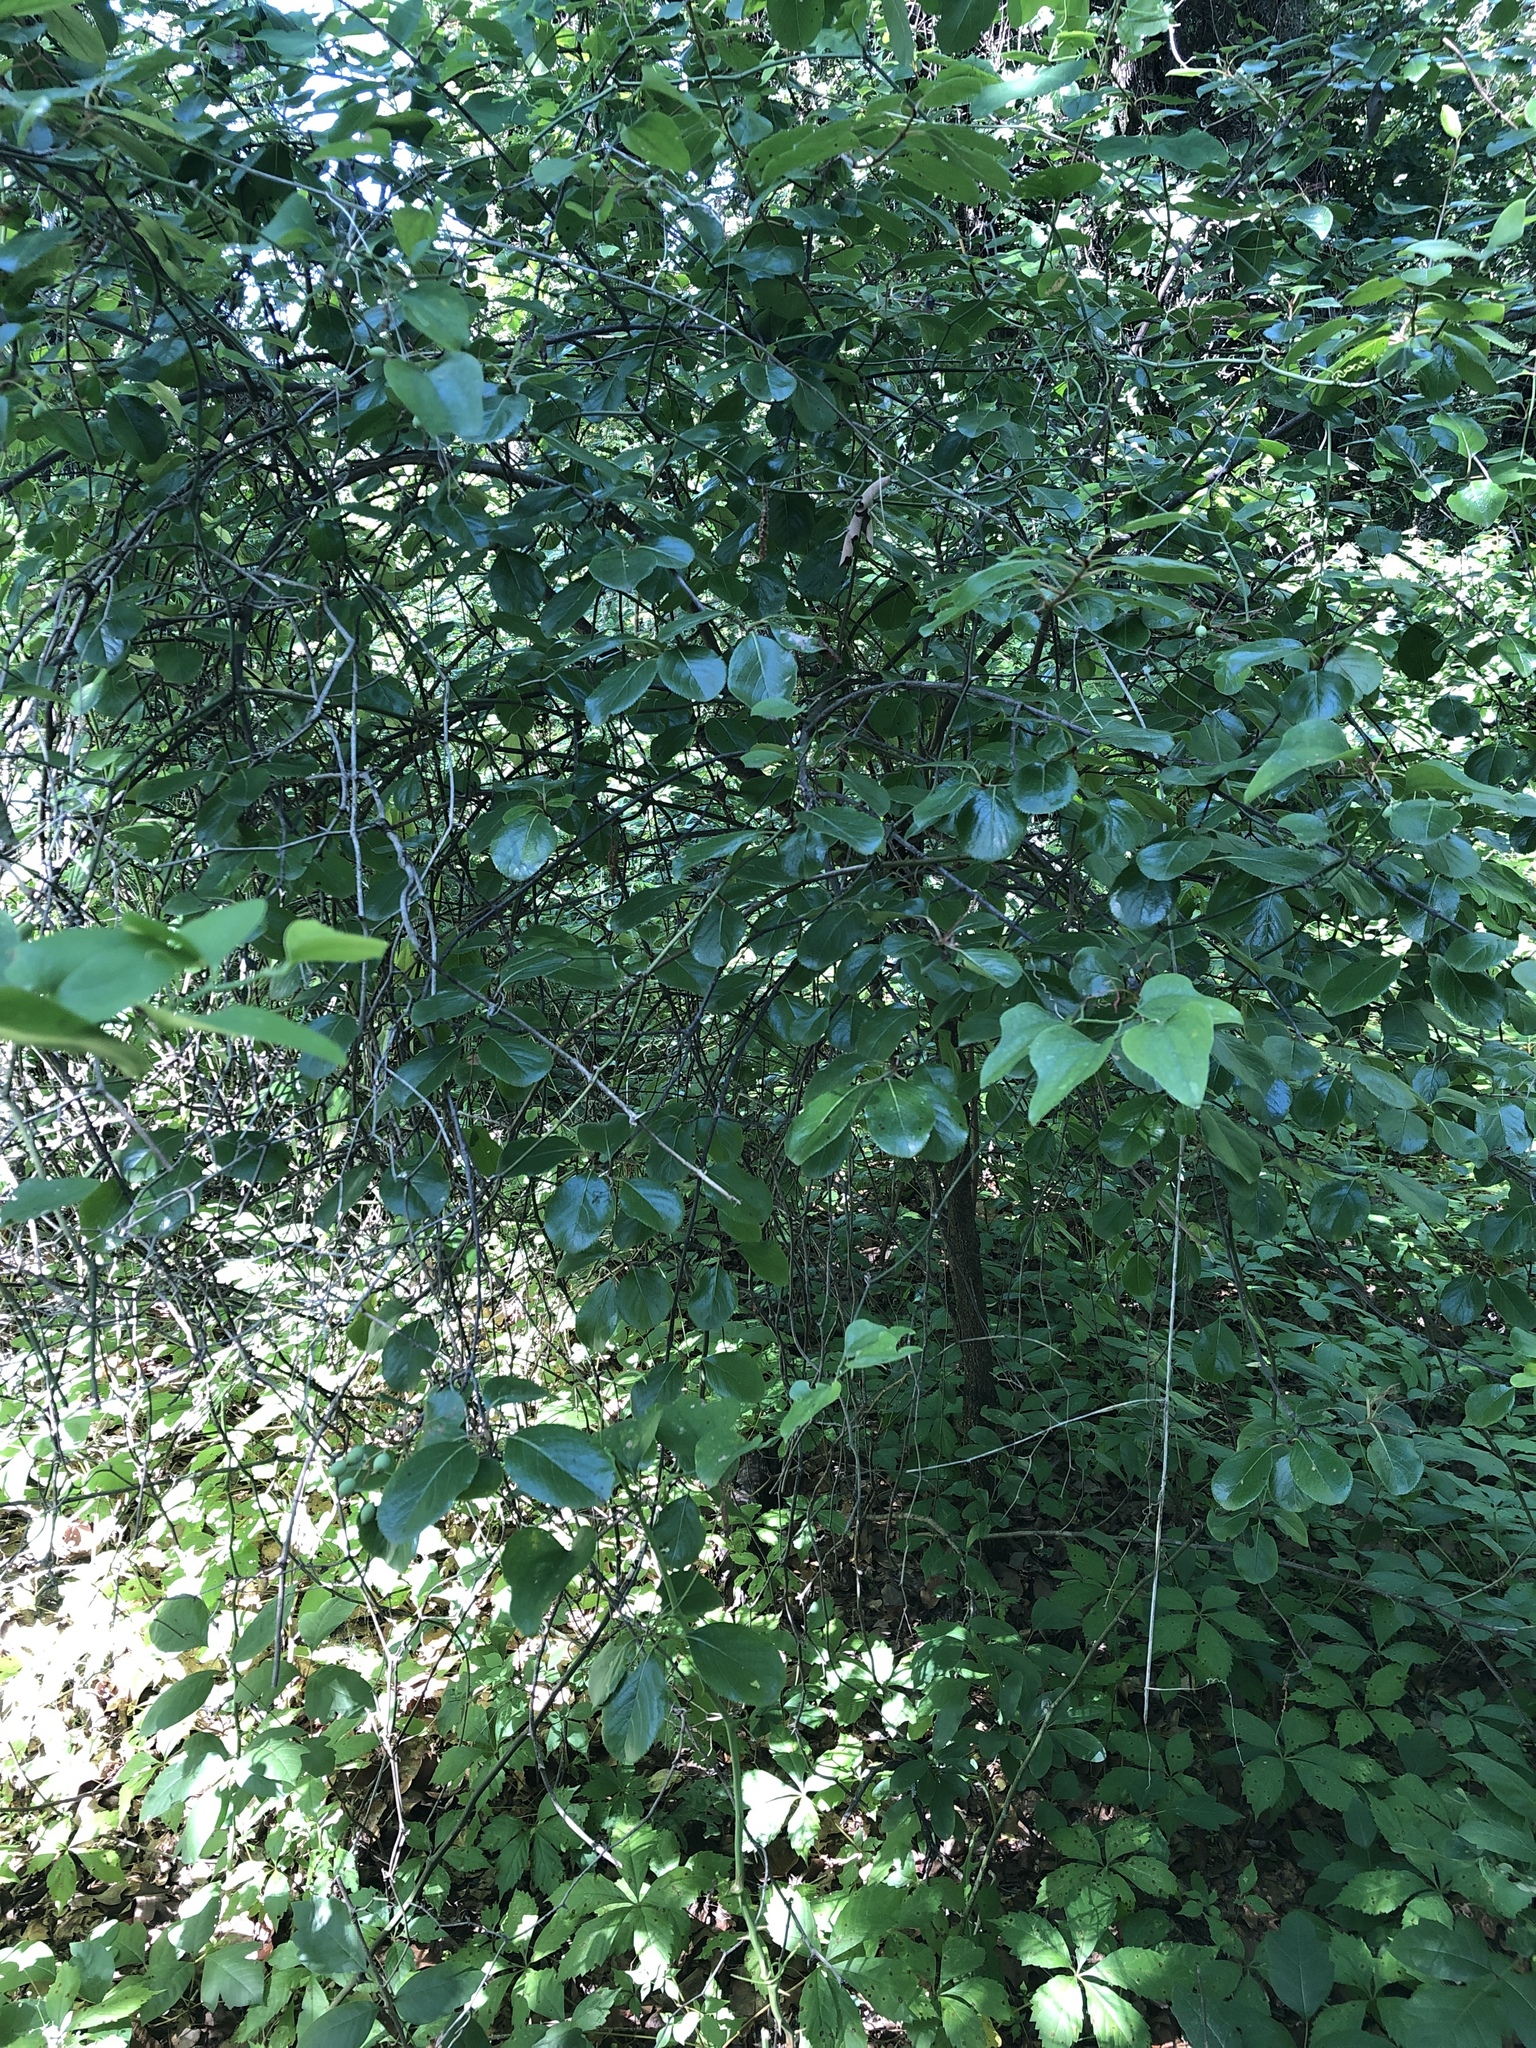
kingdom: Plantae
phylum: Tracheophyta
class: Magnoliopsida
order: Dipsacales
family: Viburnaceae
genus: Viburnum
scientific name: Viburnum rufidulum
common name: Blue haw
